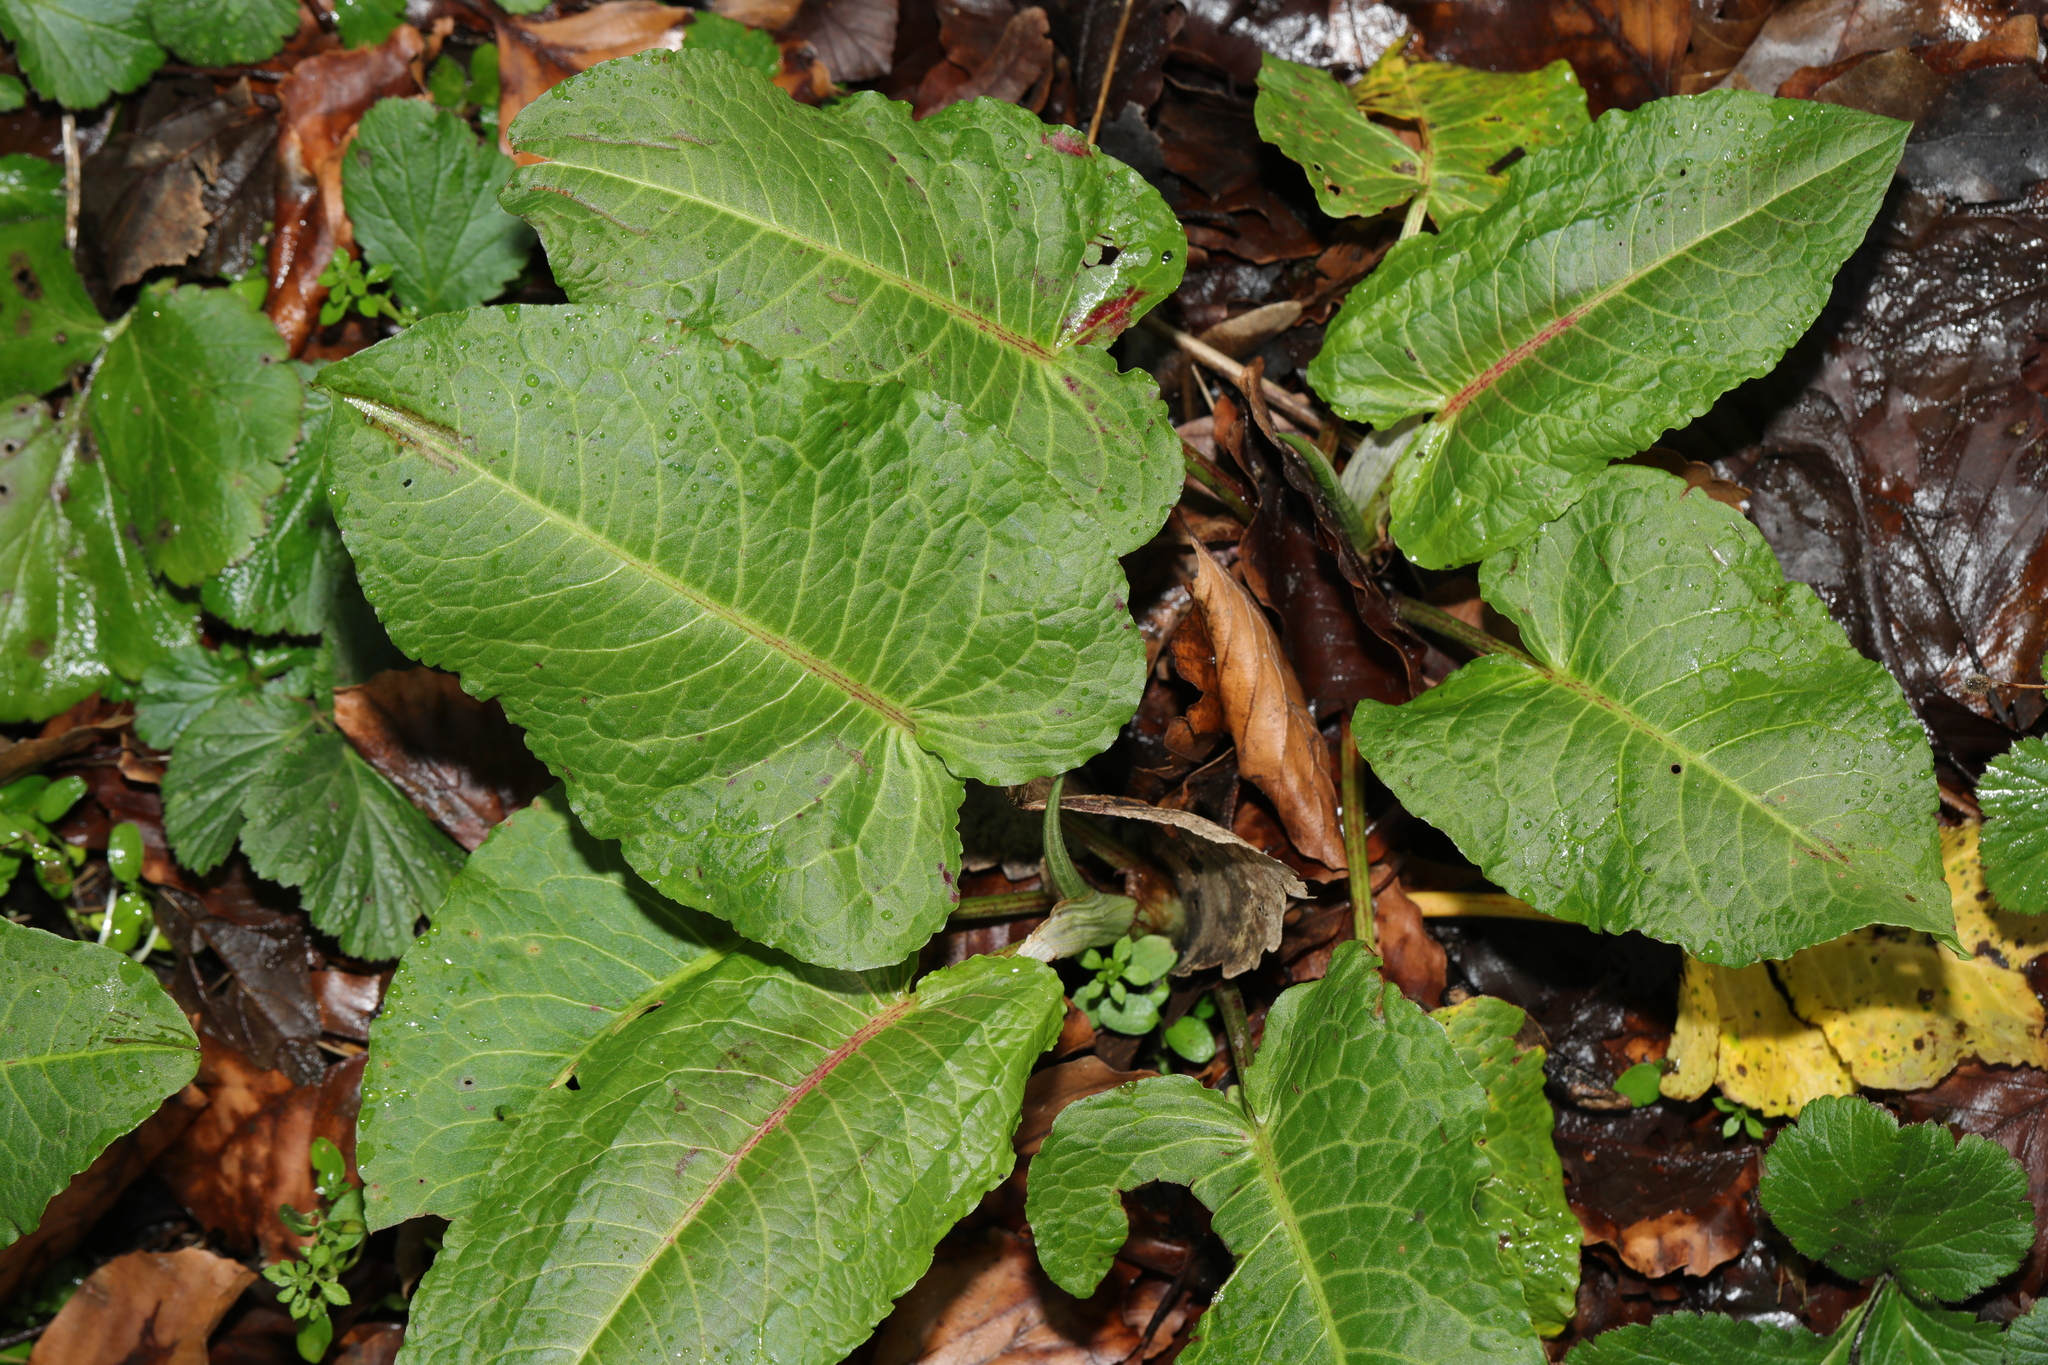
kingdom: Plantae
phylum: Tracheophyta
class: Magnoliopsida
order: Caryophyllales
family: Polygonaceae
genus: Rumex
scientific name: Rumex obtusifolius
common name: Bitter dock
